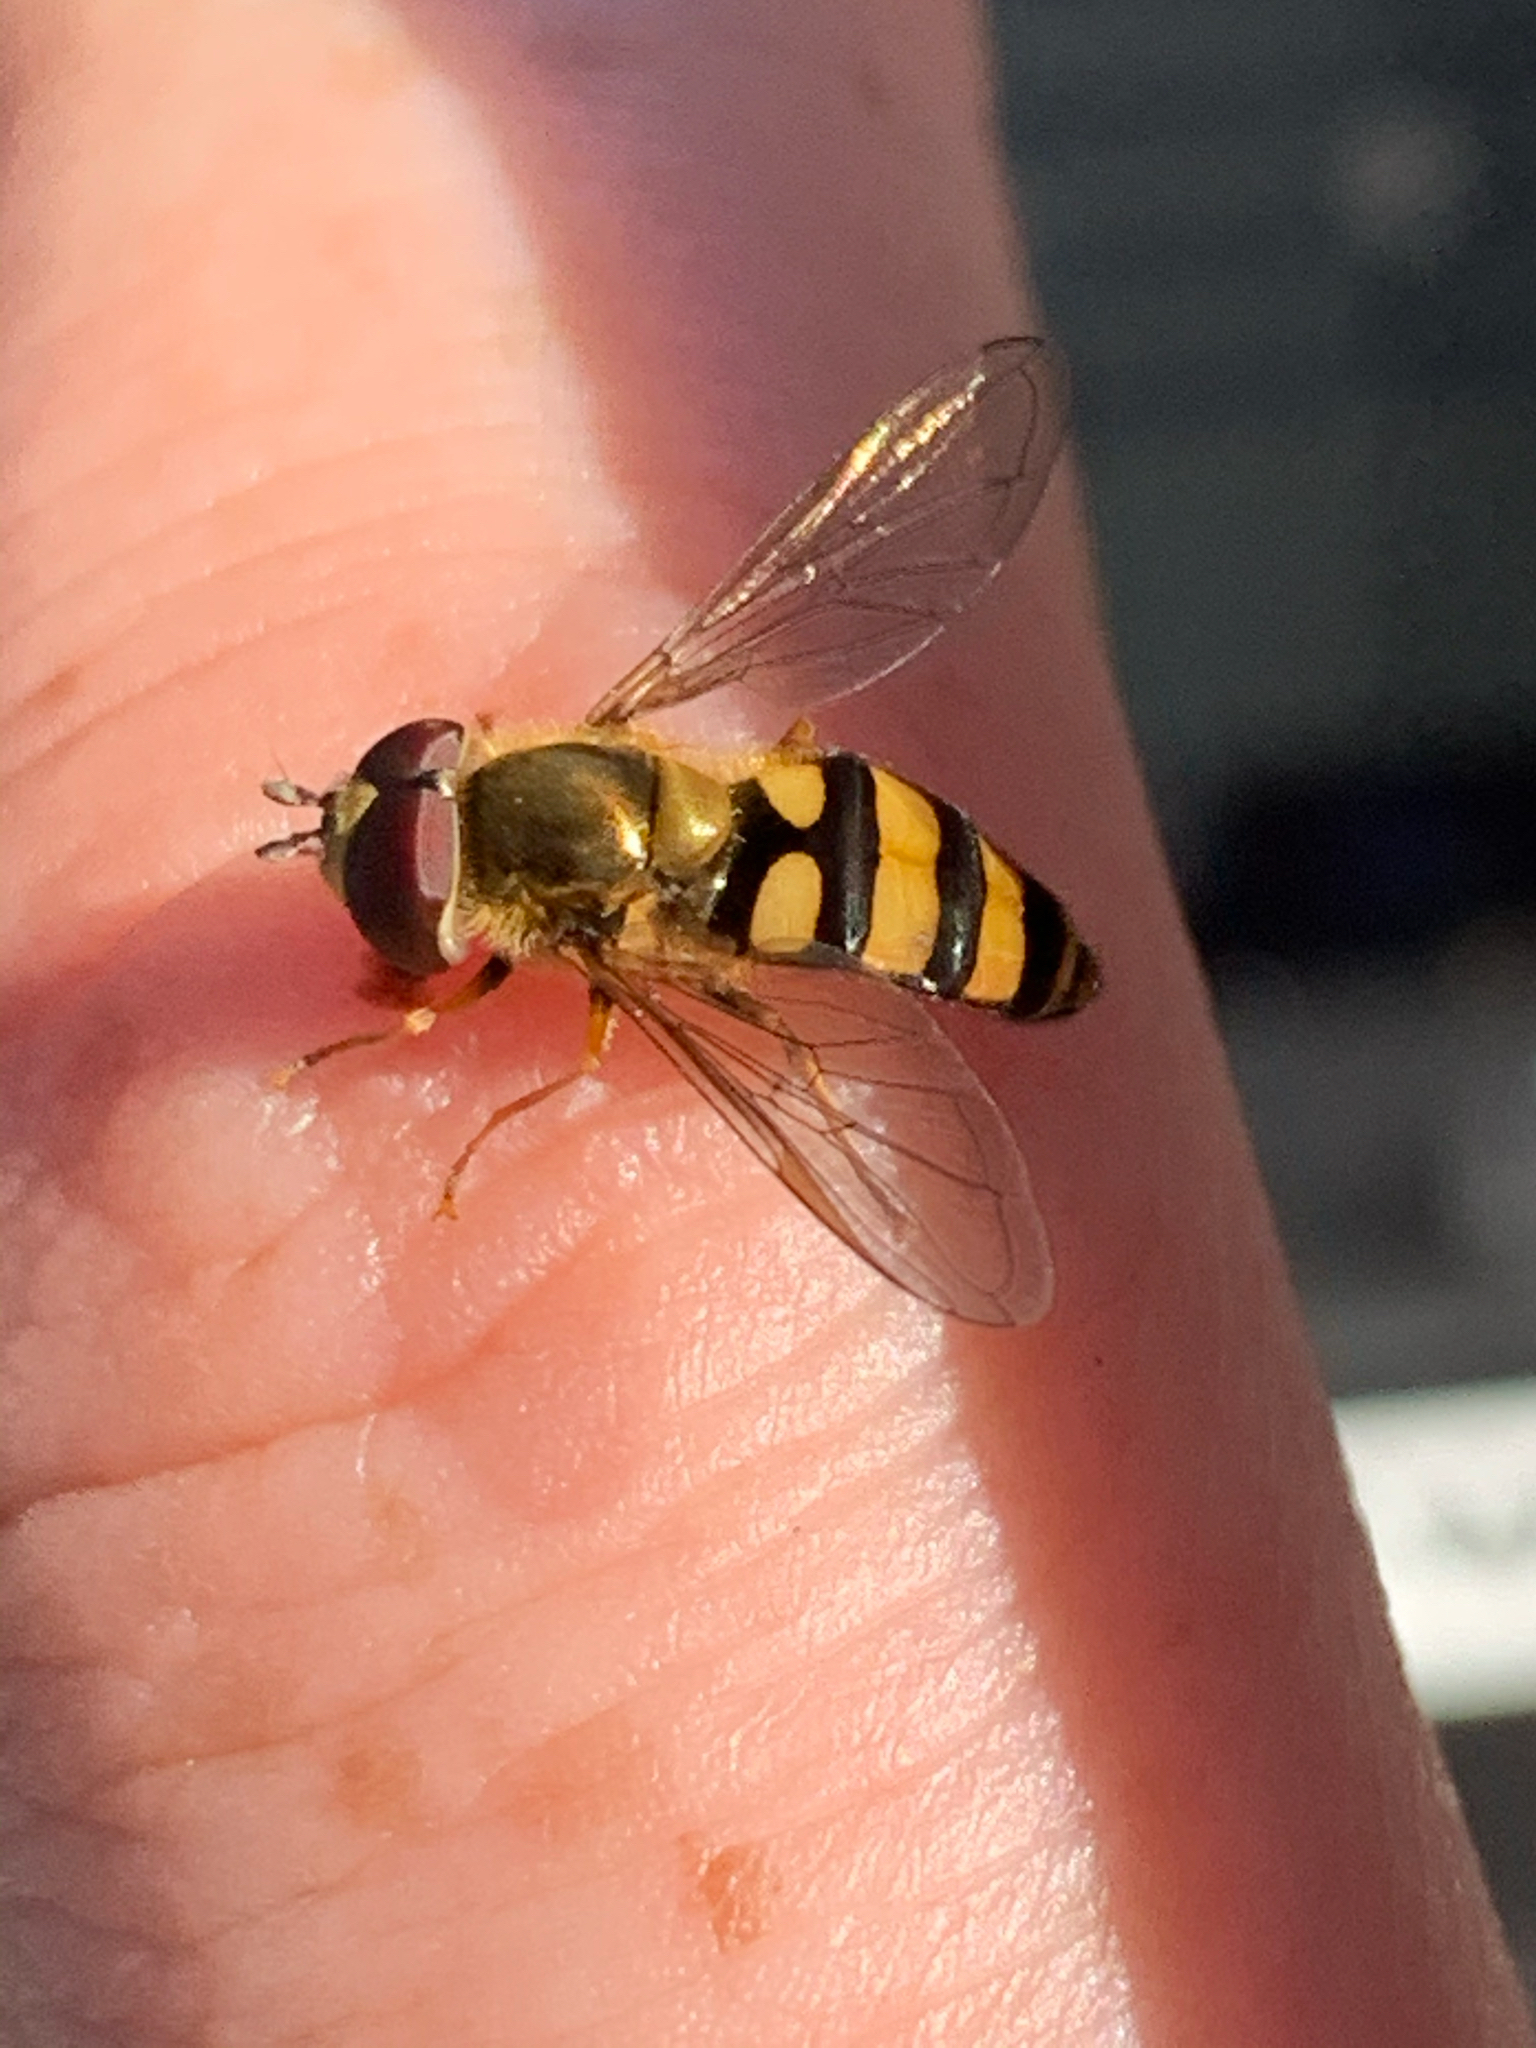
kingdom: Animalia
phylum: Arthropoda
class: Insecta
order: Diptera
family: Syrphidae
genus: Eupeodes
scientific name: Eupeodes
